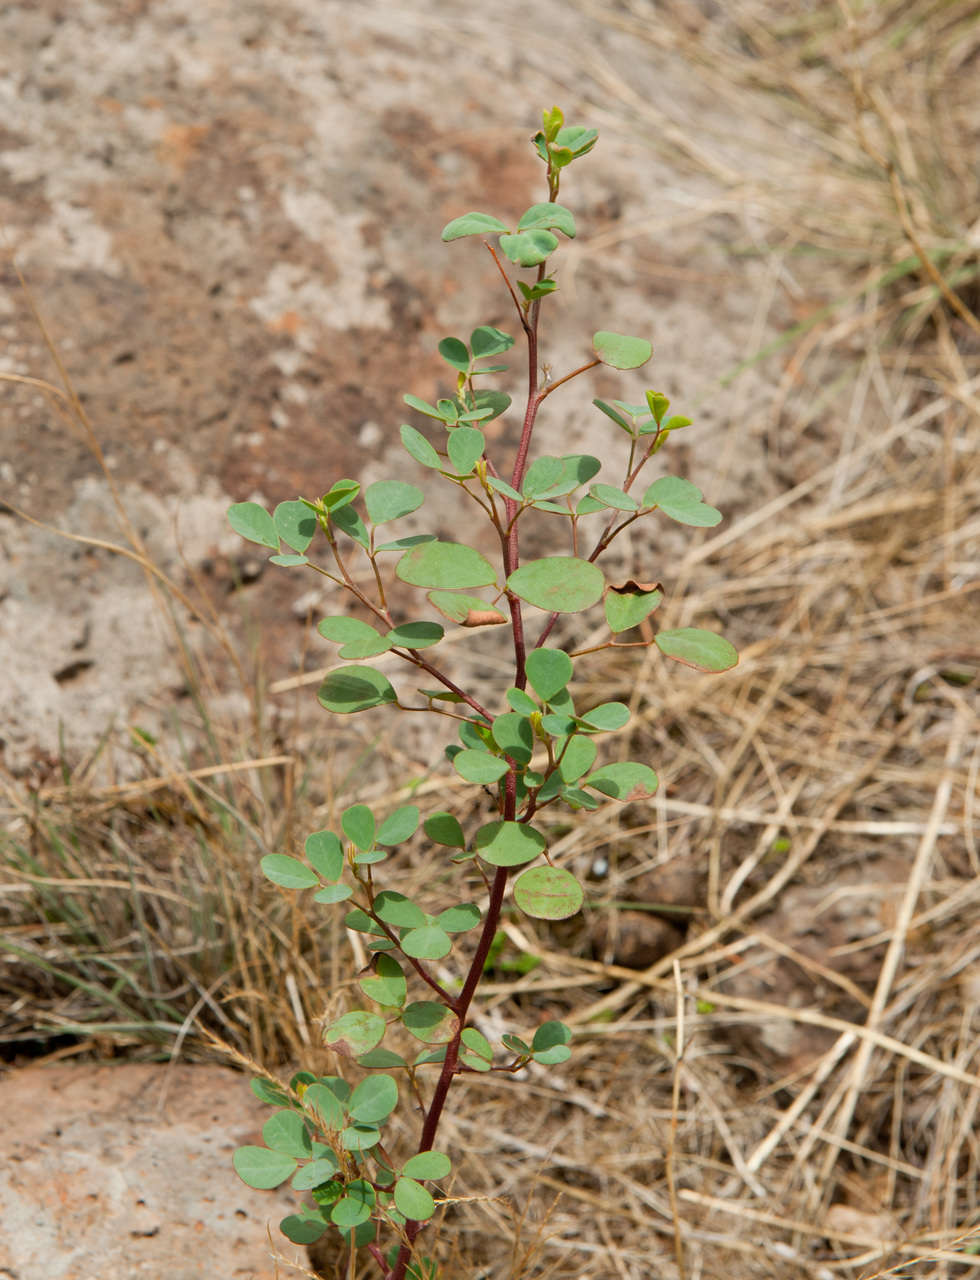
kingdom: Plantae
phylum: Tracheophyta
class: Magnoliopsida
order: Fabales
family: Fabaceae
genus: Goodia
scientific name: Goodia medicaginea
